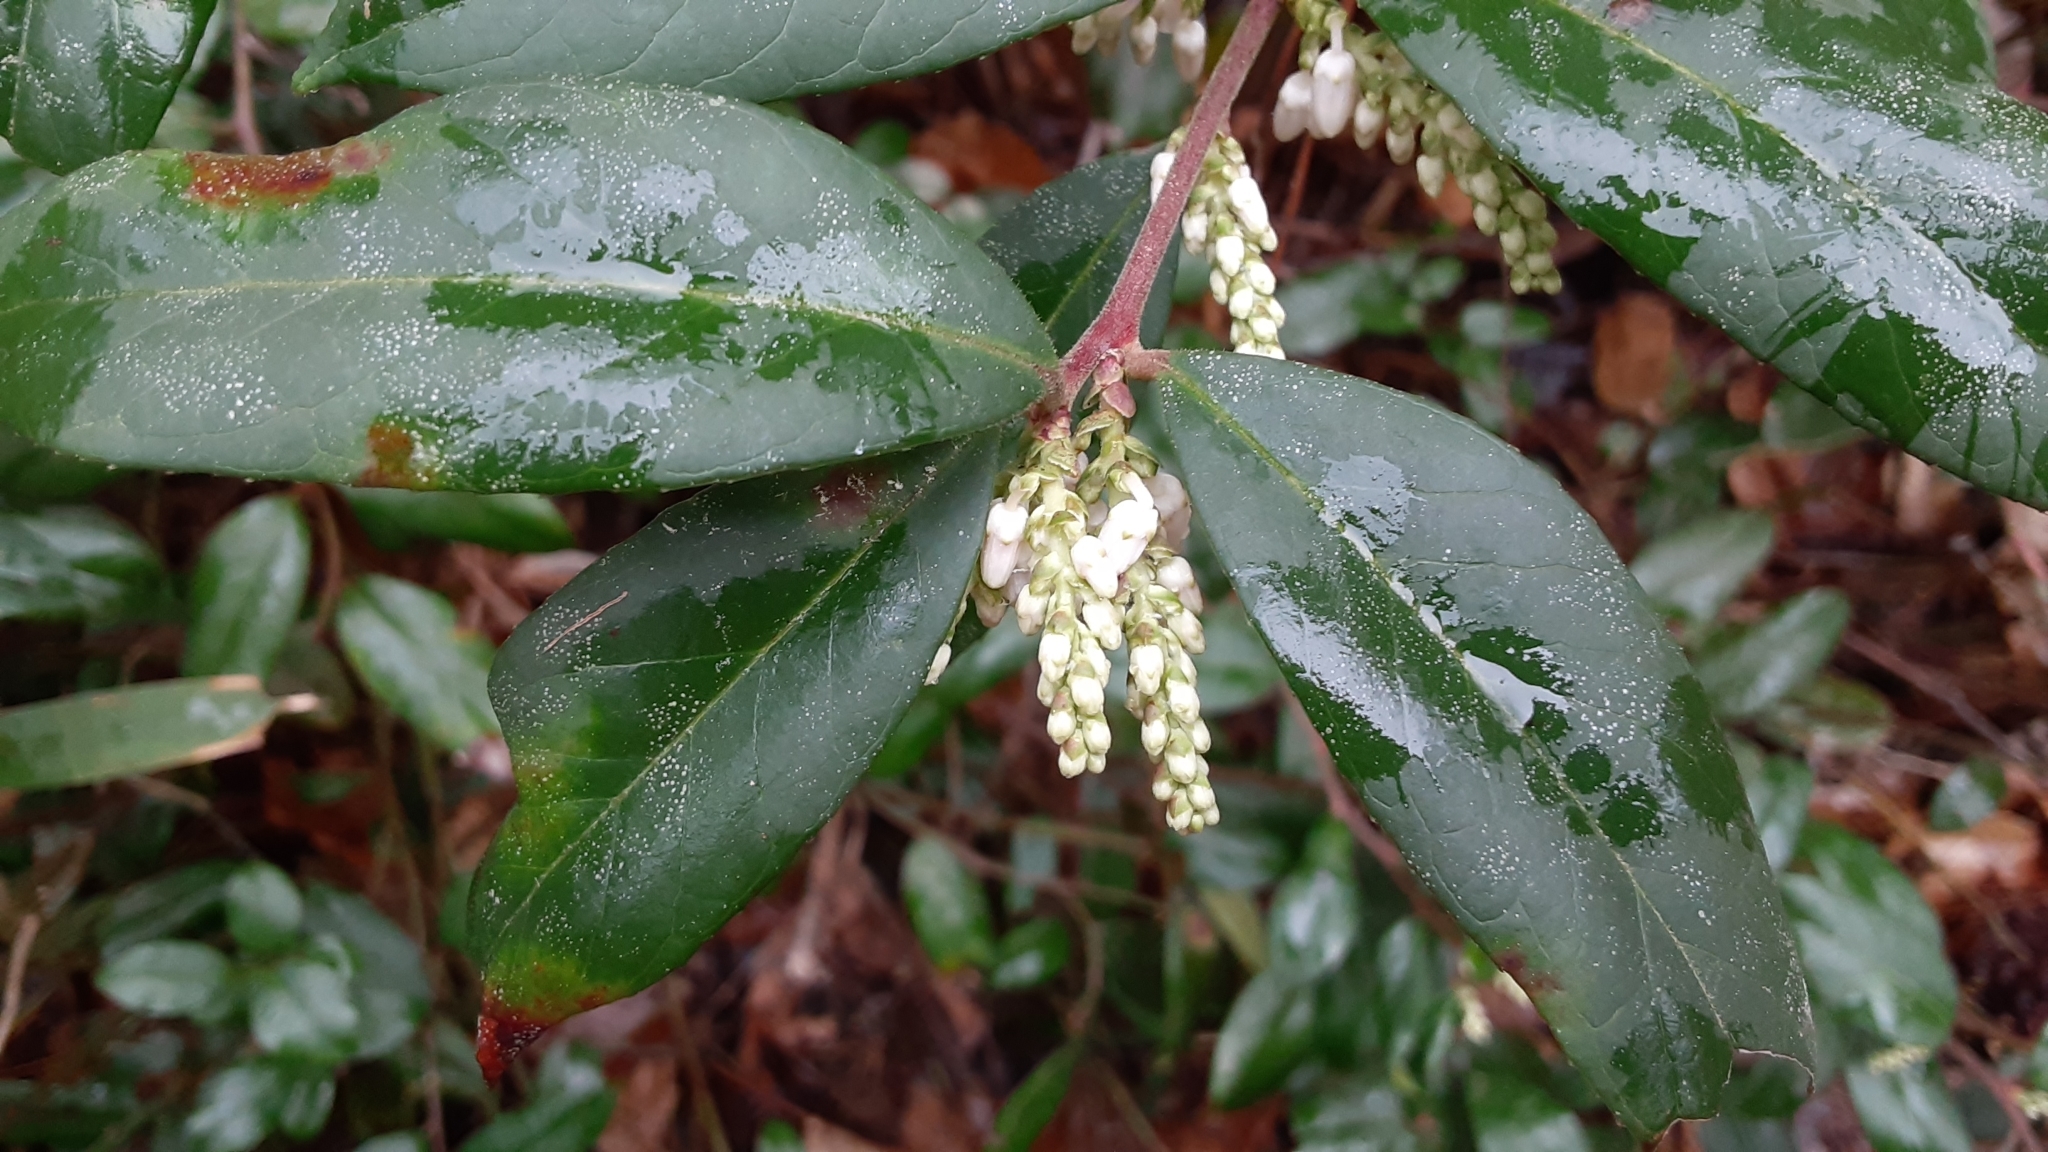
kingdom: Plantae
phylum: Tracheophyta
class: Magnoliopsida
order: Ericales
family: Ericaceae
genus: Leucothoe
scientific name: Leucothoe axillaris
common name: Leucothoe
